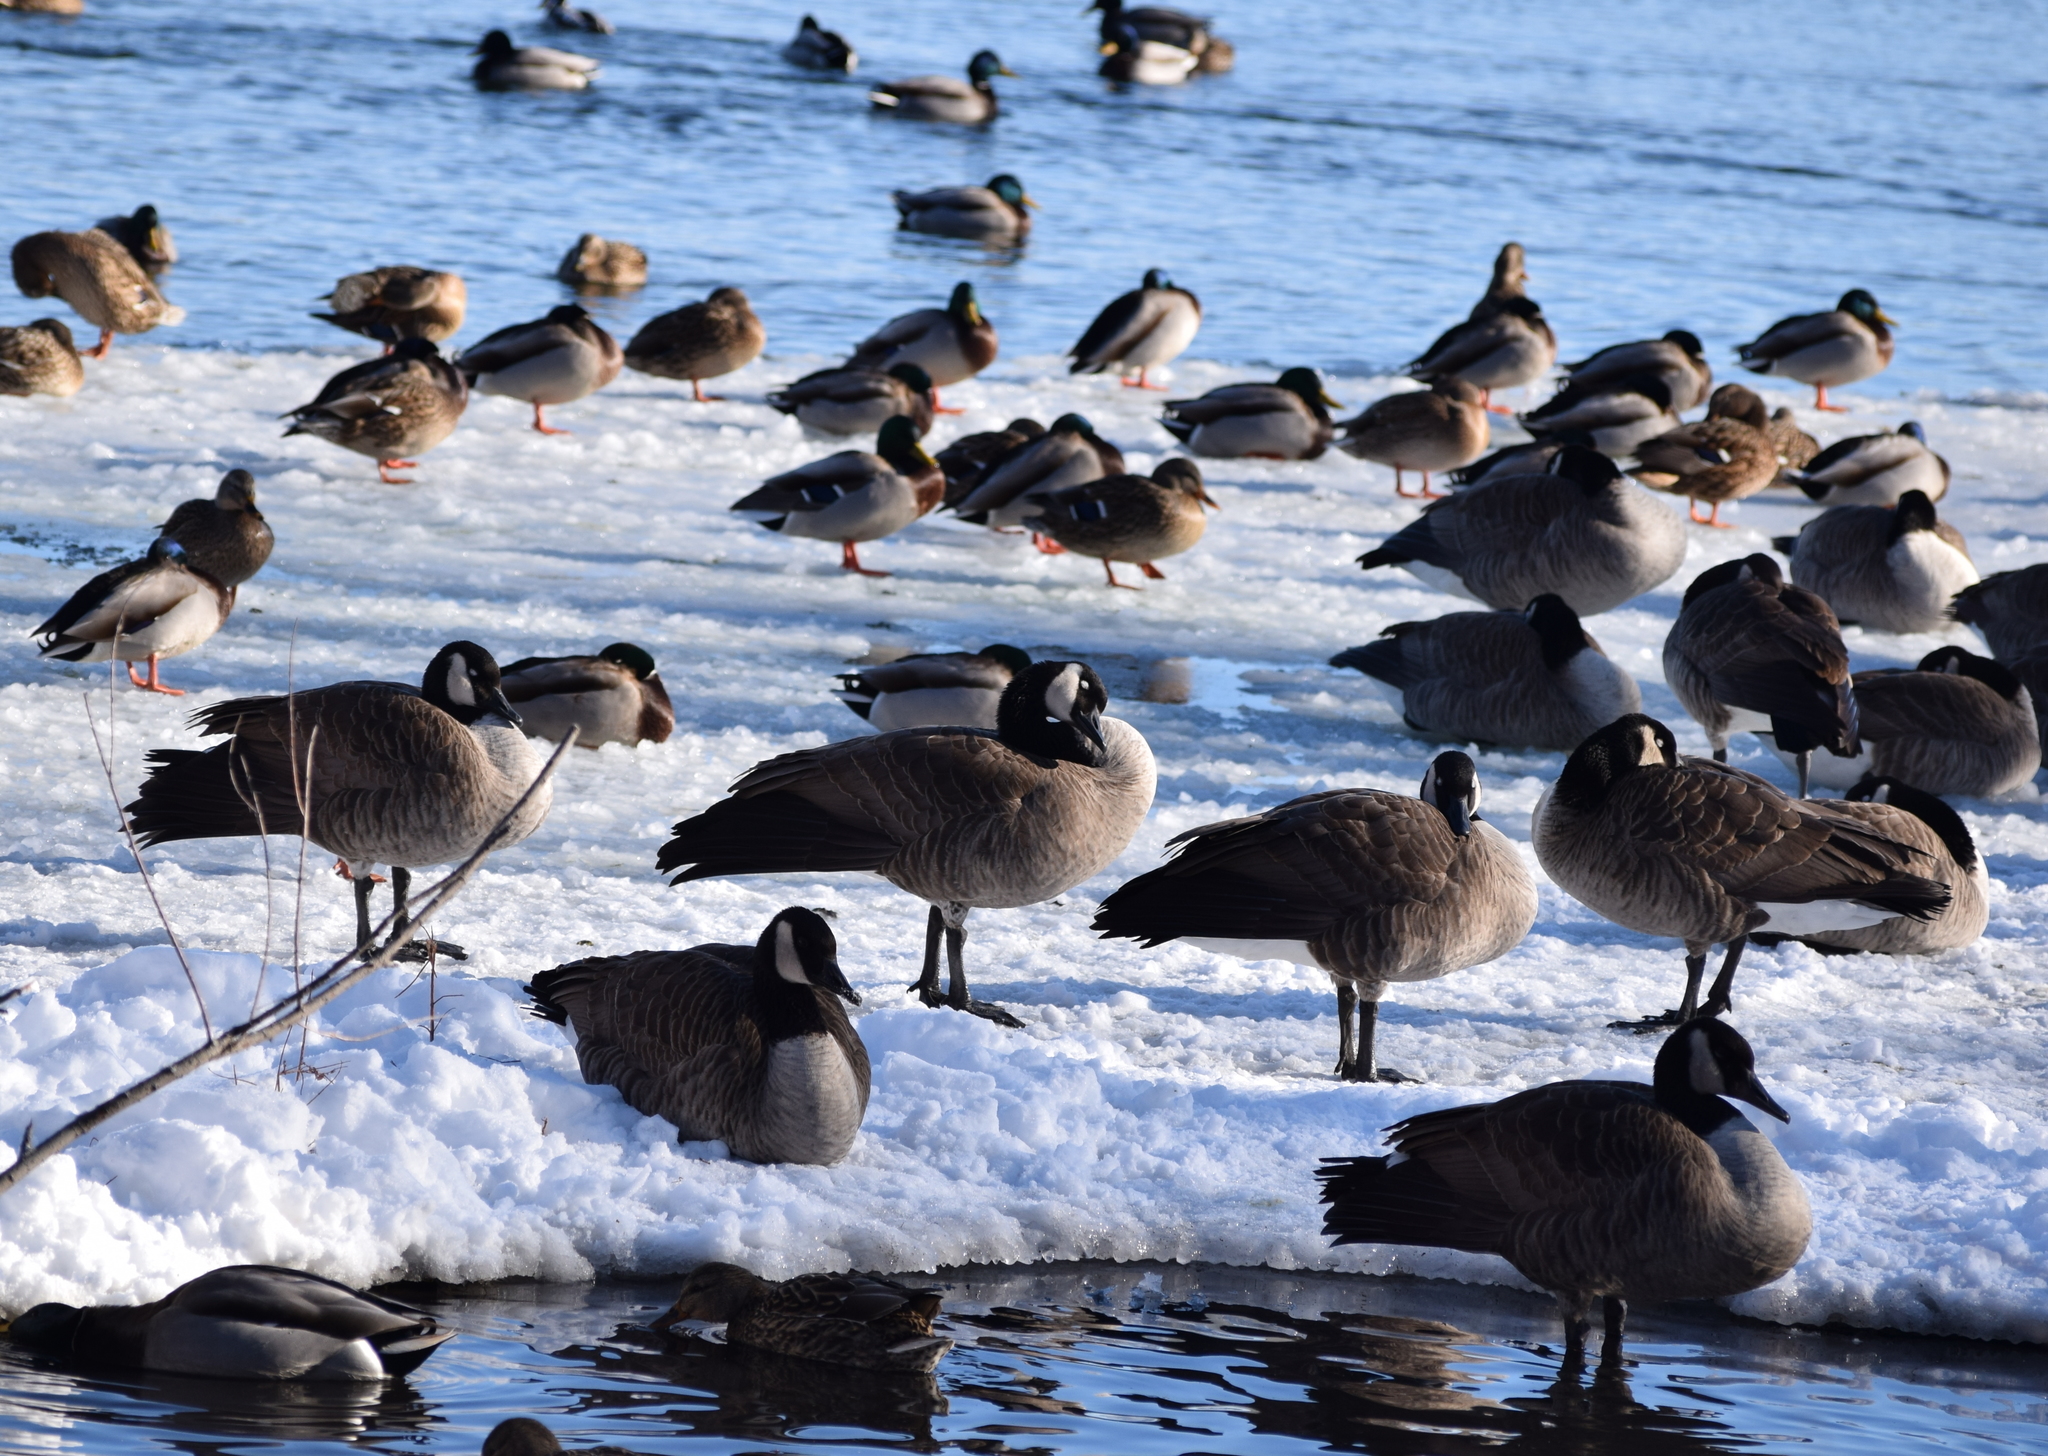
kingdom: Animalia
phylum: Chordata
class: Aves
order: Anseriformes
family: Anatidae
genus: Branta
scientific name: Branta canadensis
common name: Canada goose
